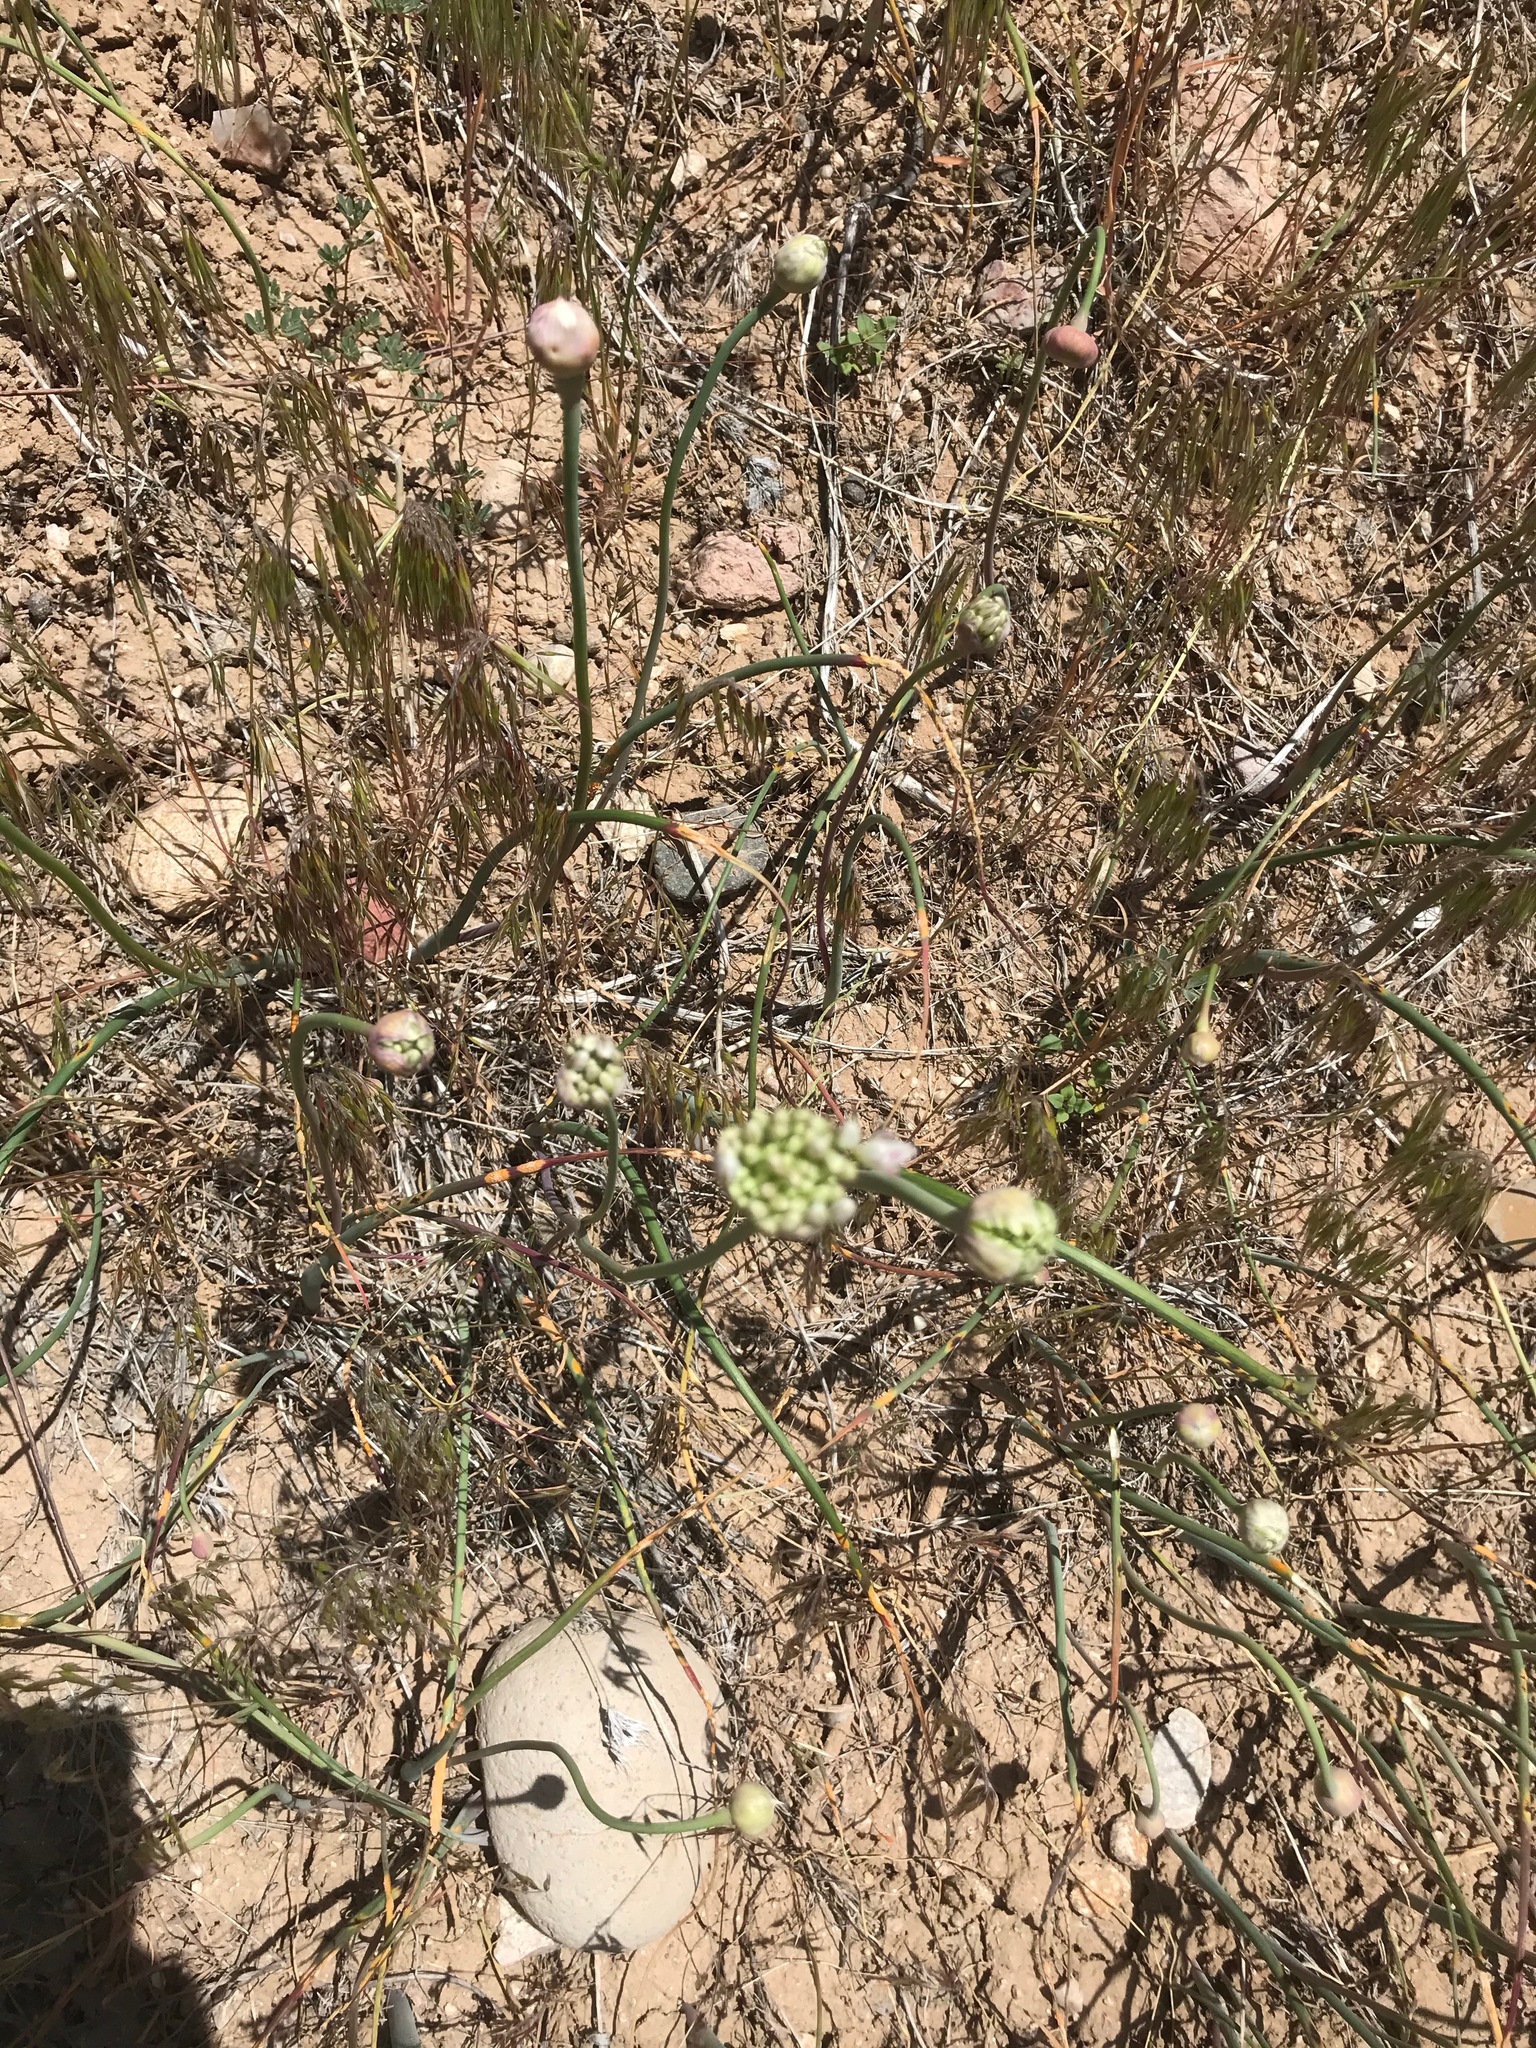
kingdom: Plantae
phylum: Tracheophyta
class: Liliopsida
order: Asparagales
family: Amaryllidaceae
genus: Allium
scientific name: Allium howellii
